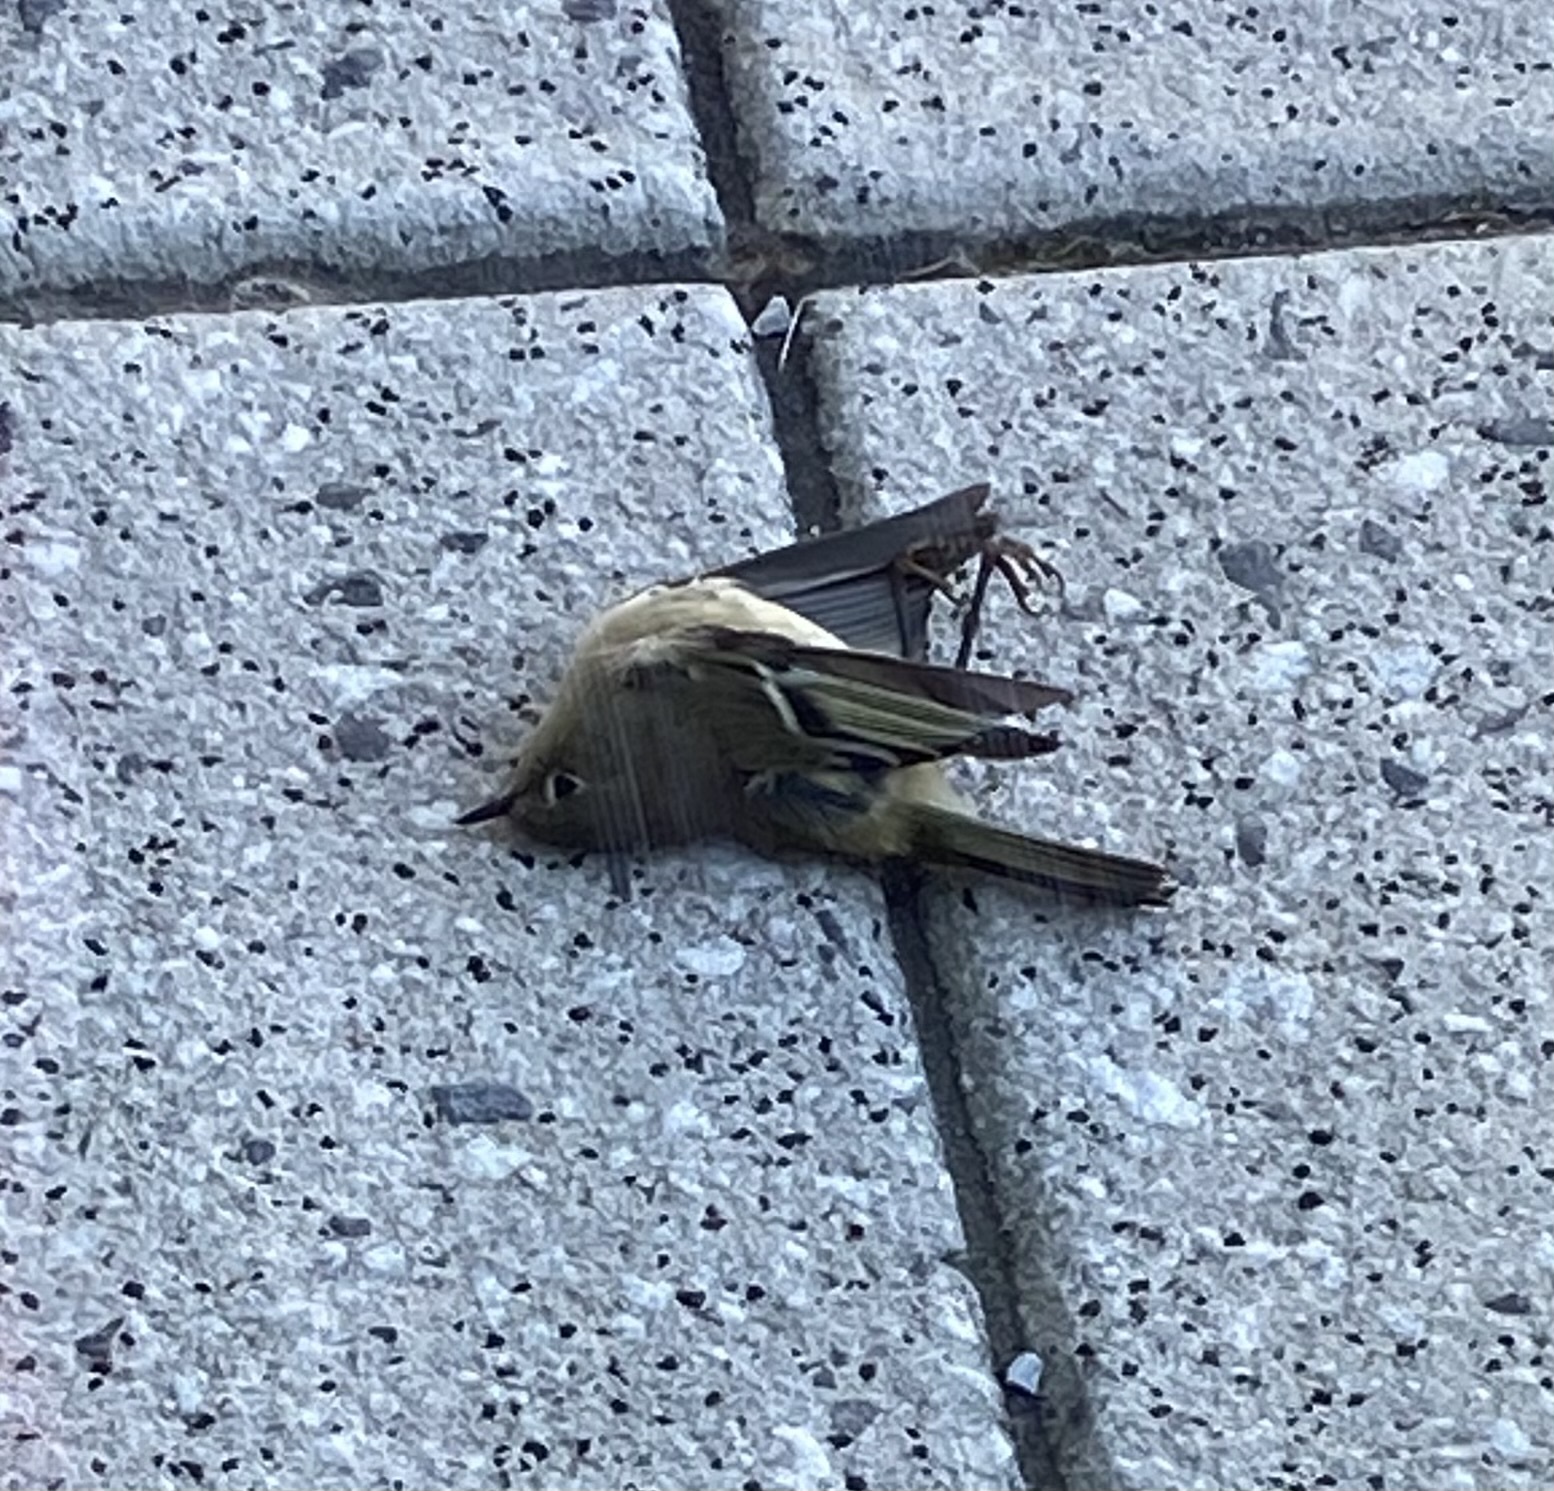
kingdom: Animalia
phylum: Chordata
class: Aves
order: Passeriformes
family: Regulidae
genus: Regulus
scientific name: Regulus calendula
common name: Ruby-crowned kinglet
